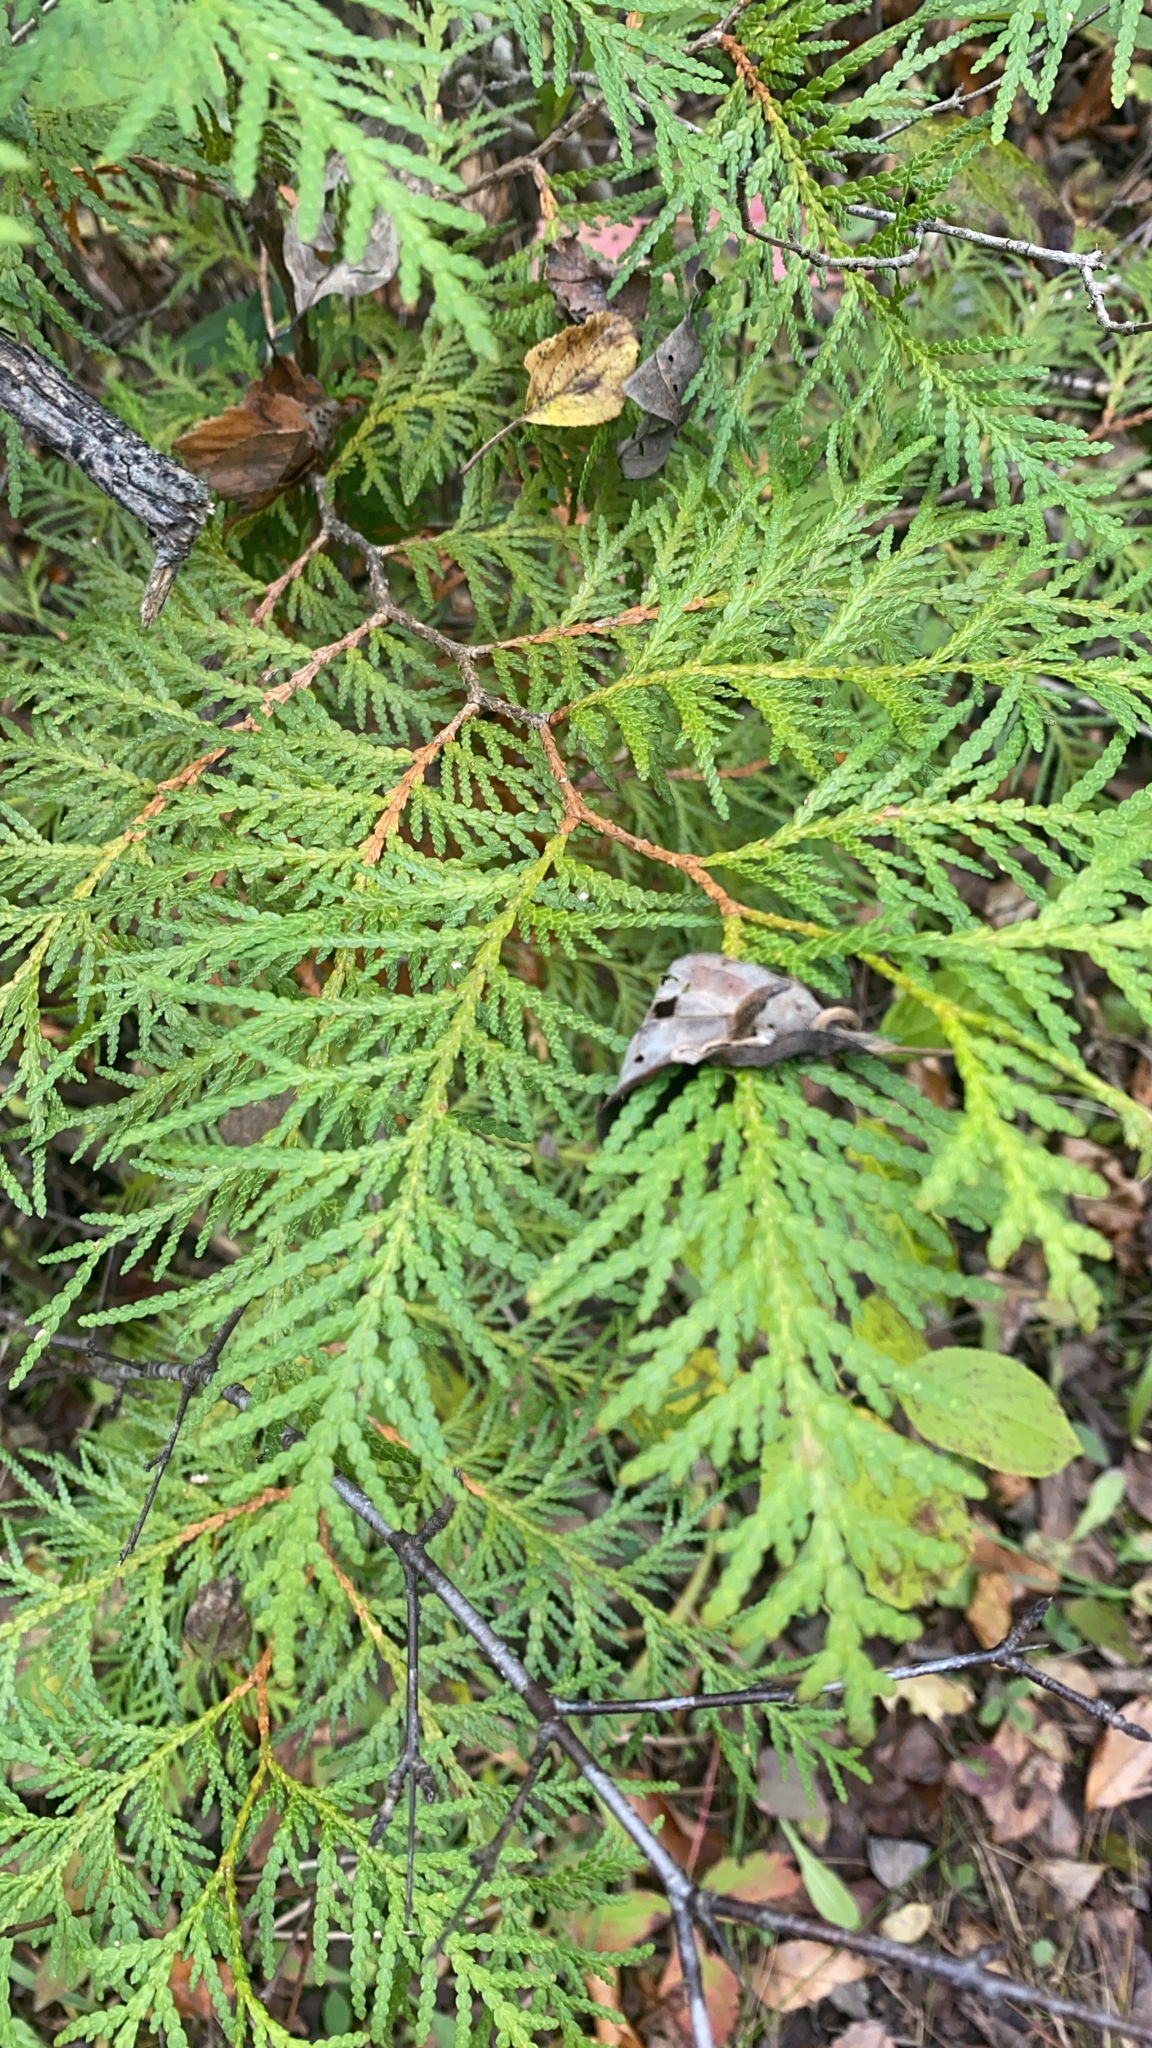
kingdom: Plantae
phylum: Tracheophyta
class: Pinopsida
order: Pinales
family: Cupressaceae
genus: Thuja
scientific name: Thuja occidentalis
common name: Northern white-cedar
